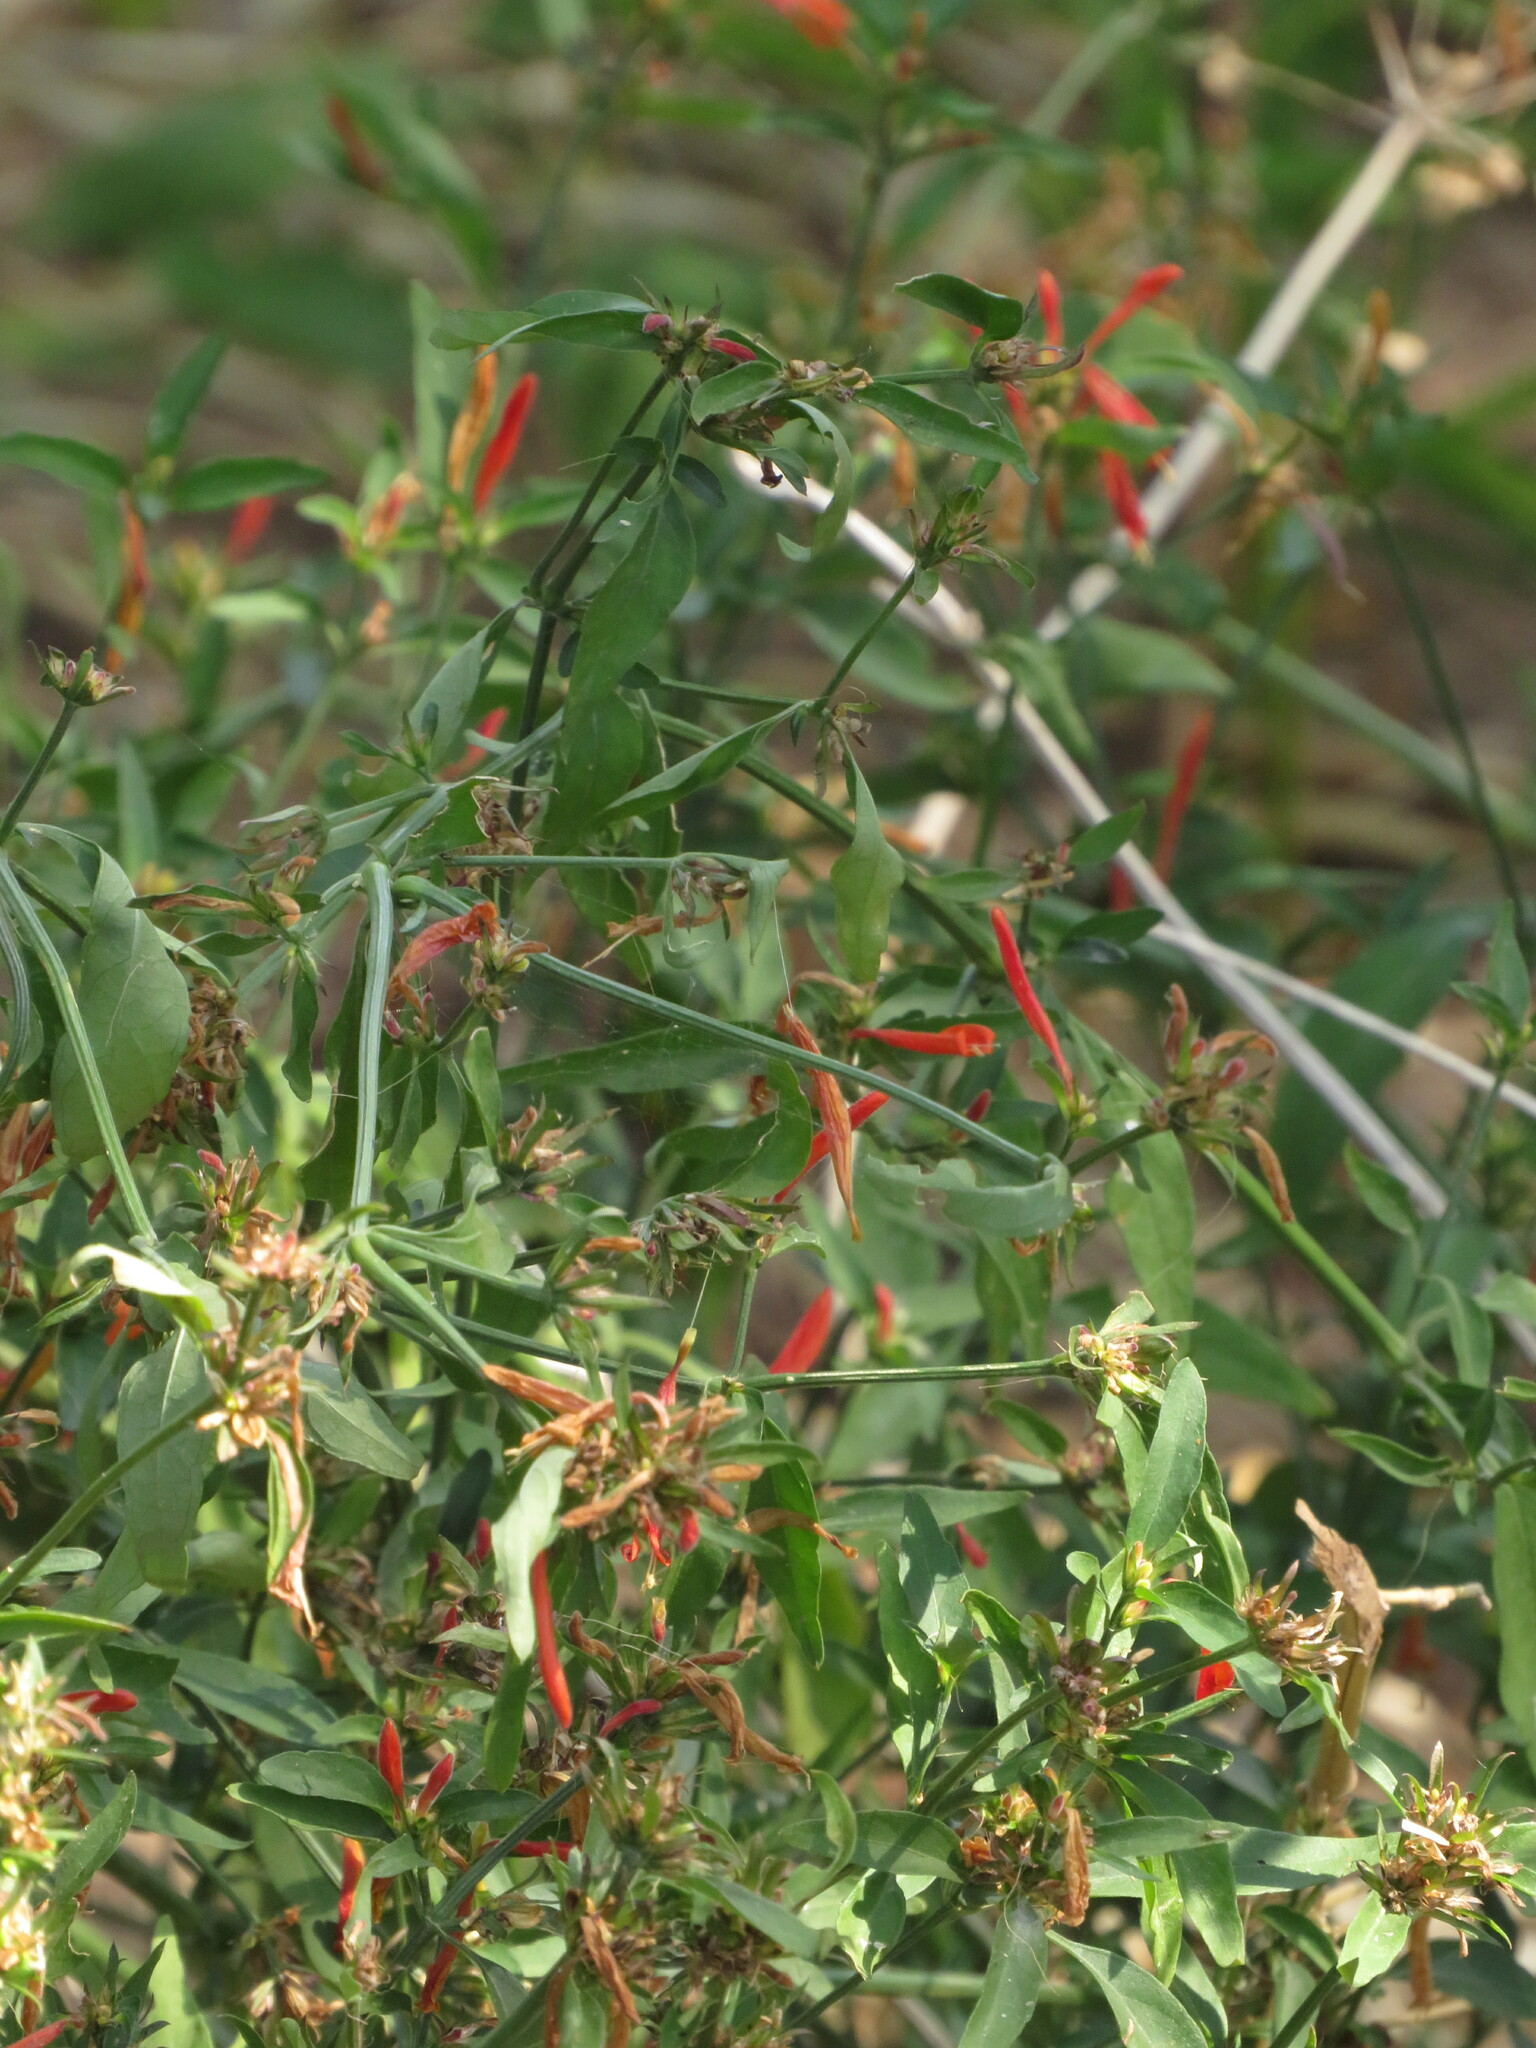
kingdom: Plantae
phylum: Tracheophyta
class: Magnoliopsida
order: Lamiales
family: Acanthaceae
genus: Dicliptera
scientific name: Dicliptera squarrosa
